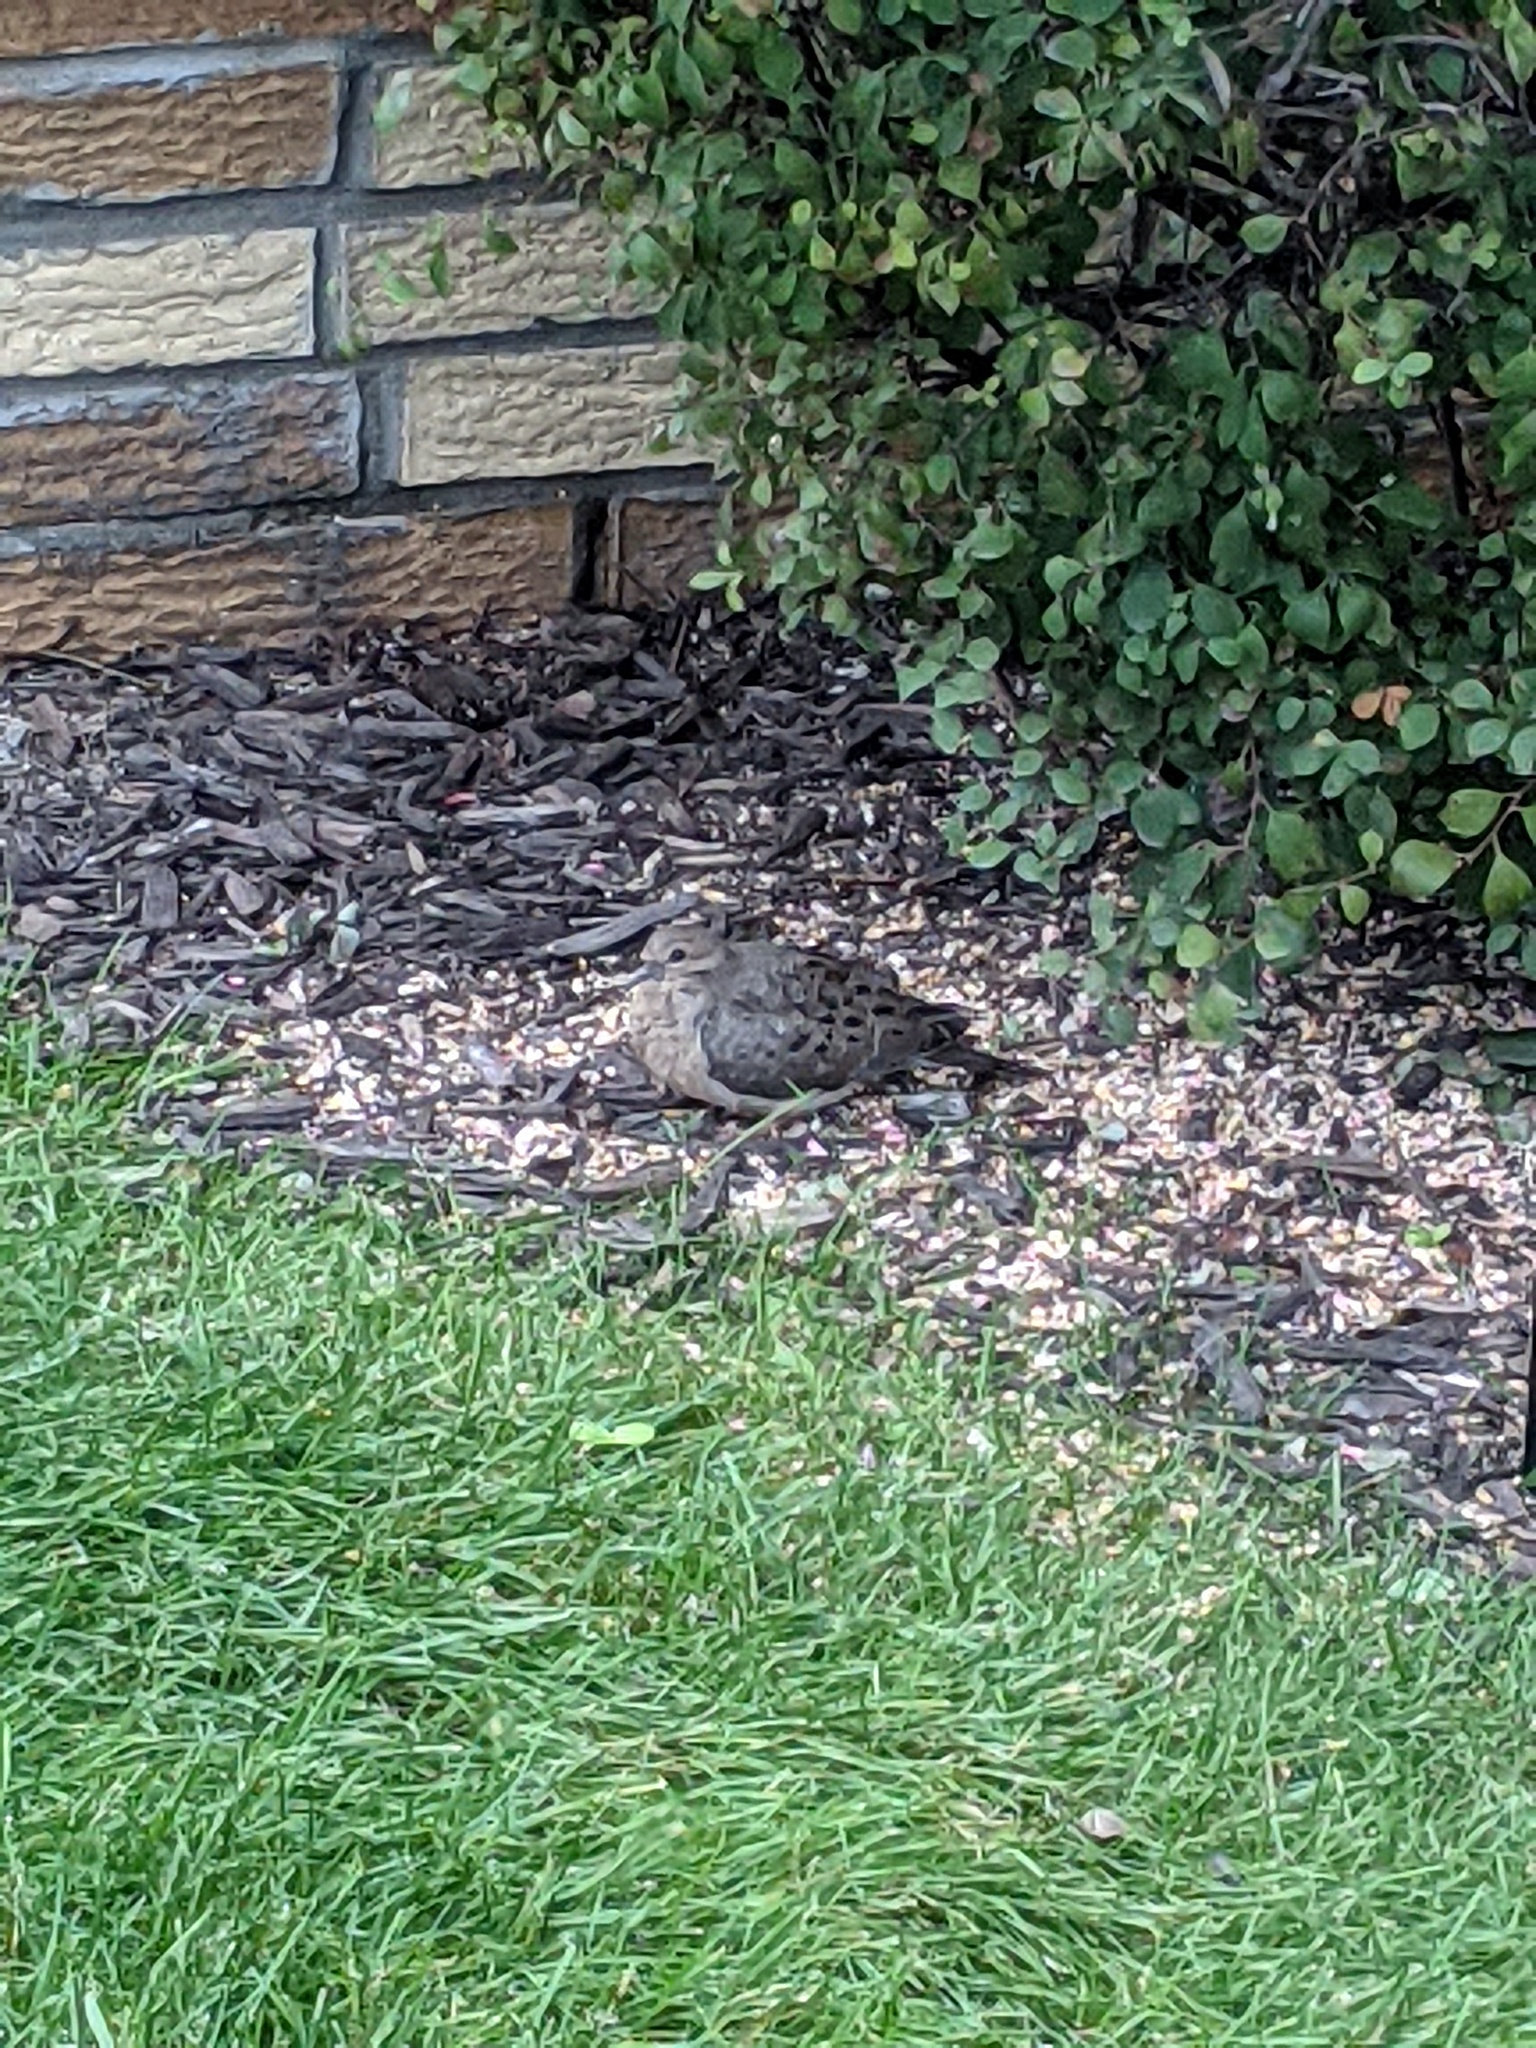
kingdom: Animalia
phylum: Chordata
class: Aves
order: Columbiformes
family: Columbidae
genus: Zenaida
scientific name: Zenaida macroura
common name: Mourning dove
